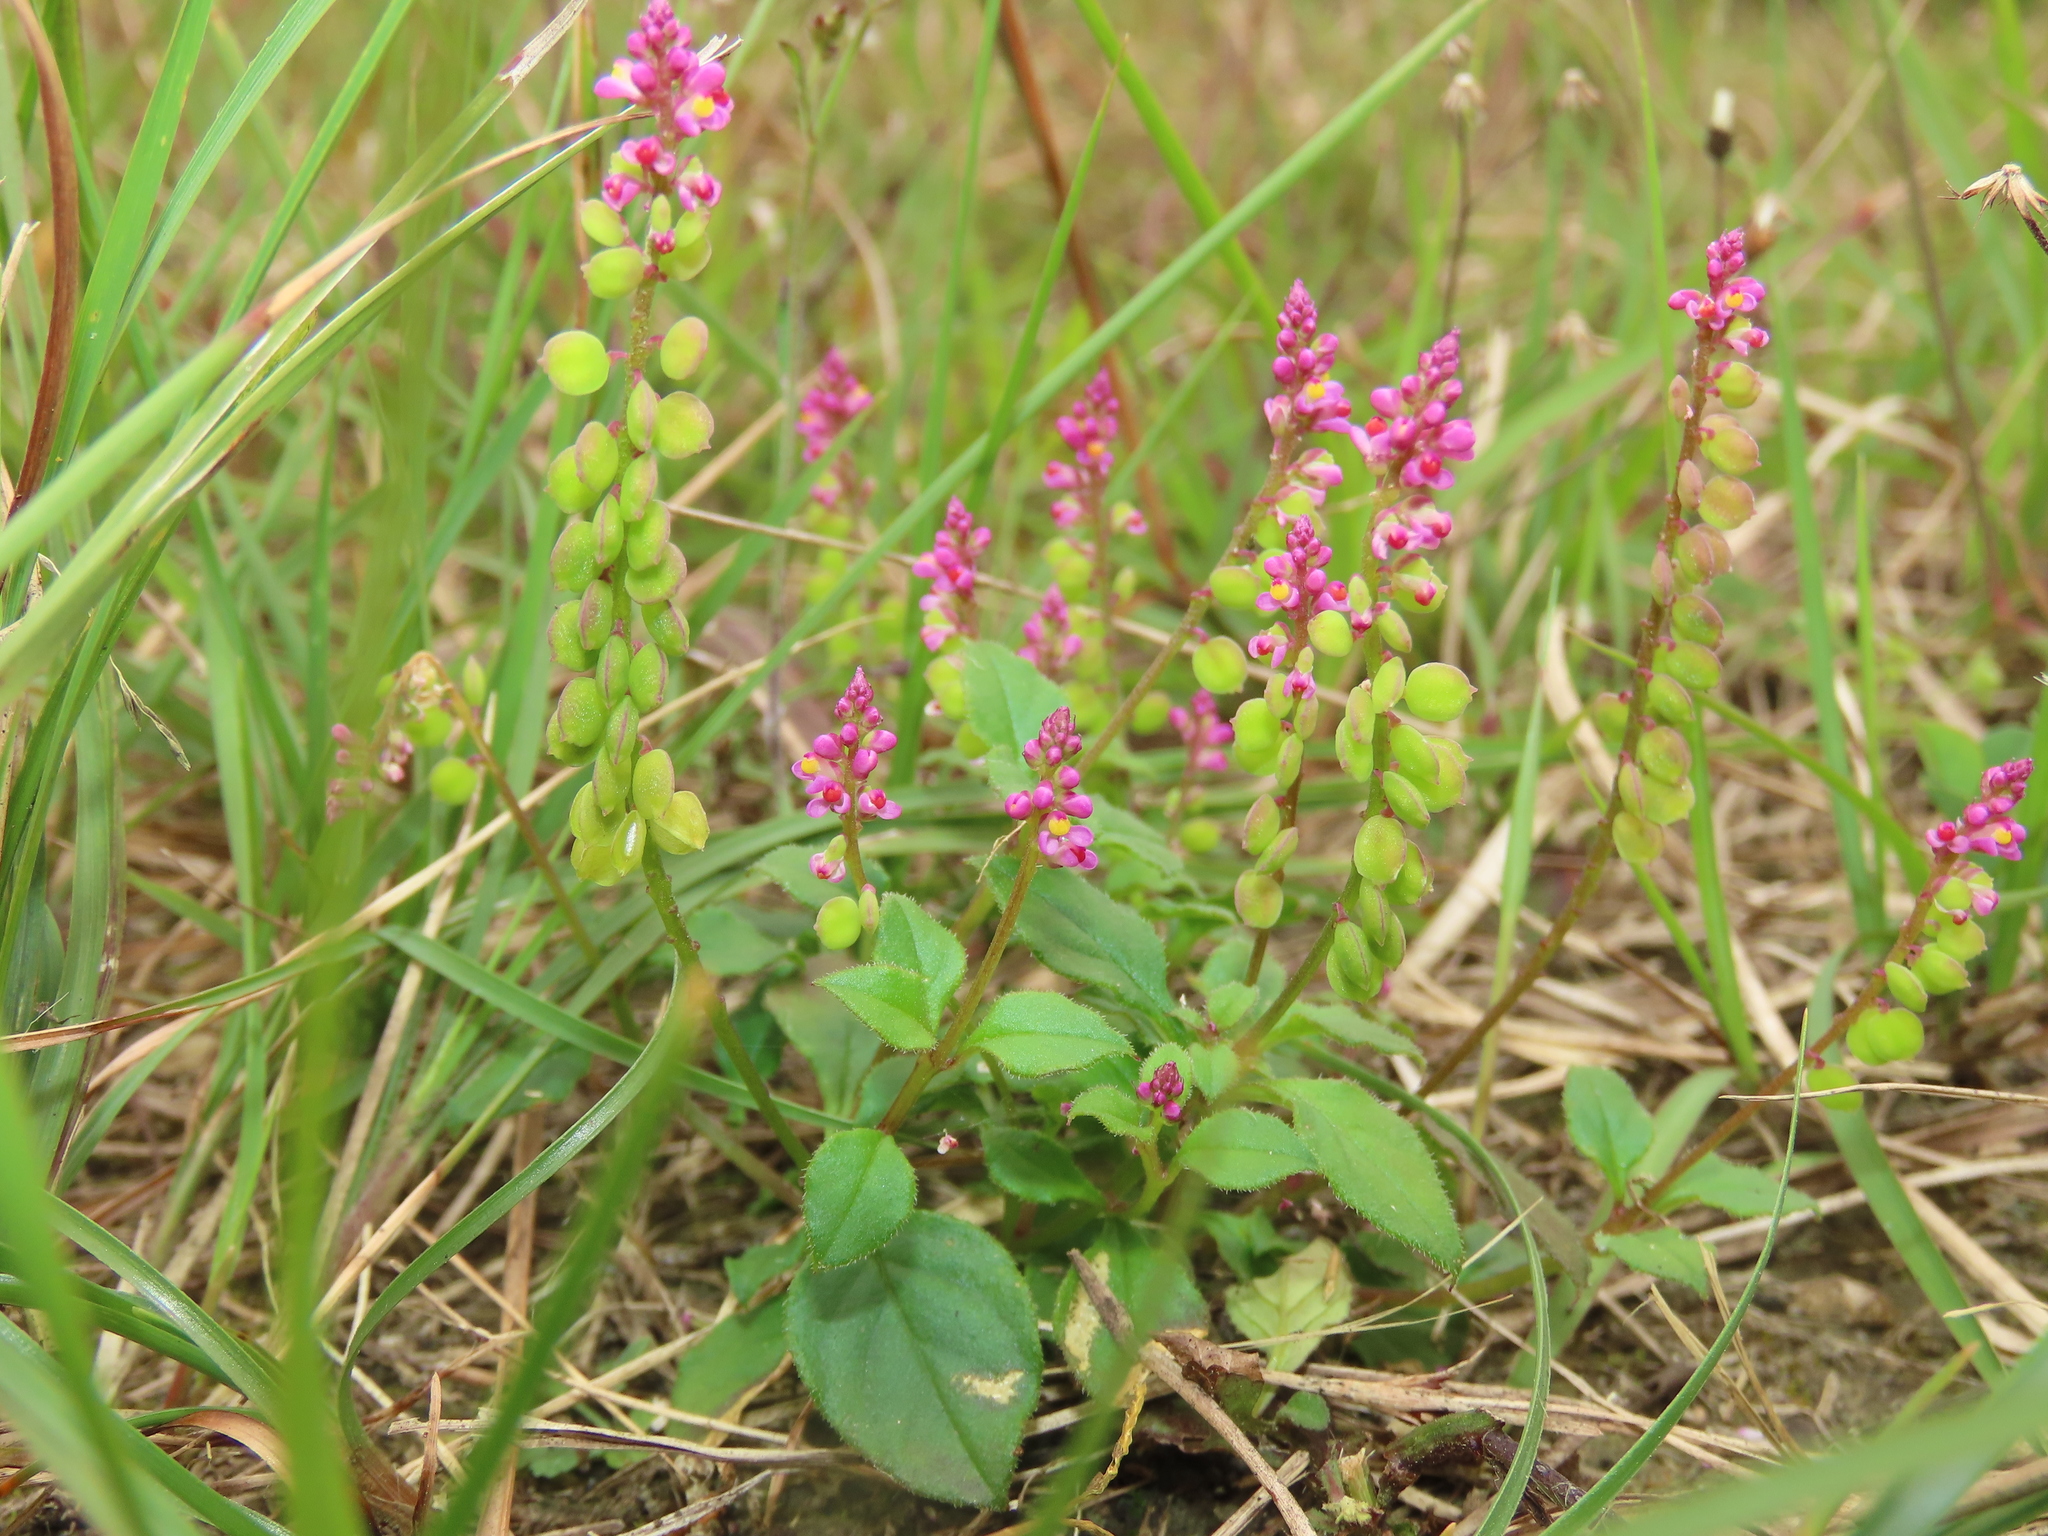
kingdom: Plantae
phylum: Tracheophyta
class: Magnoliopsida
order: Fabales
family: Polygalaceae
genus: Polygala
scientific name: Polygala tatarinowii
